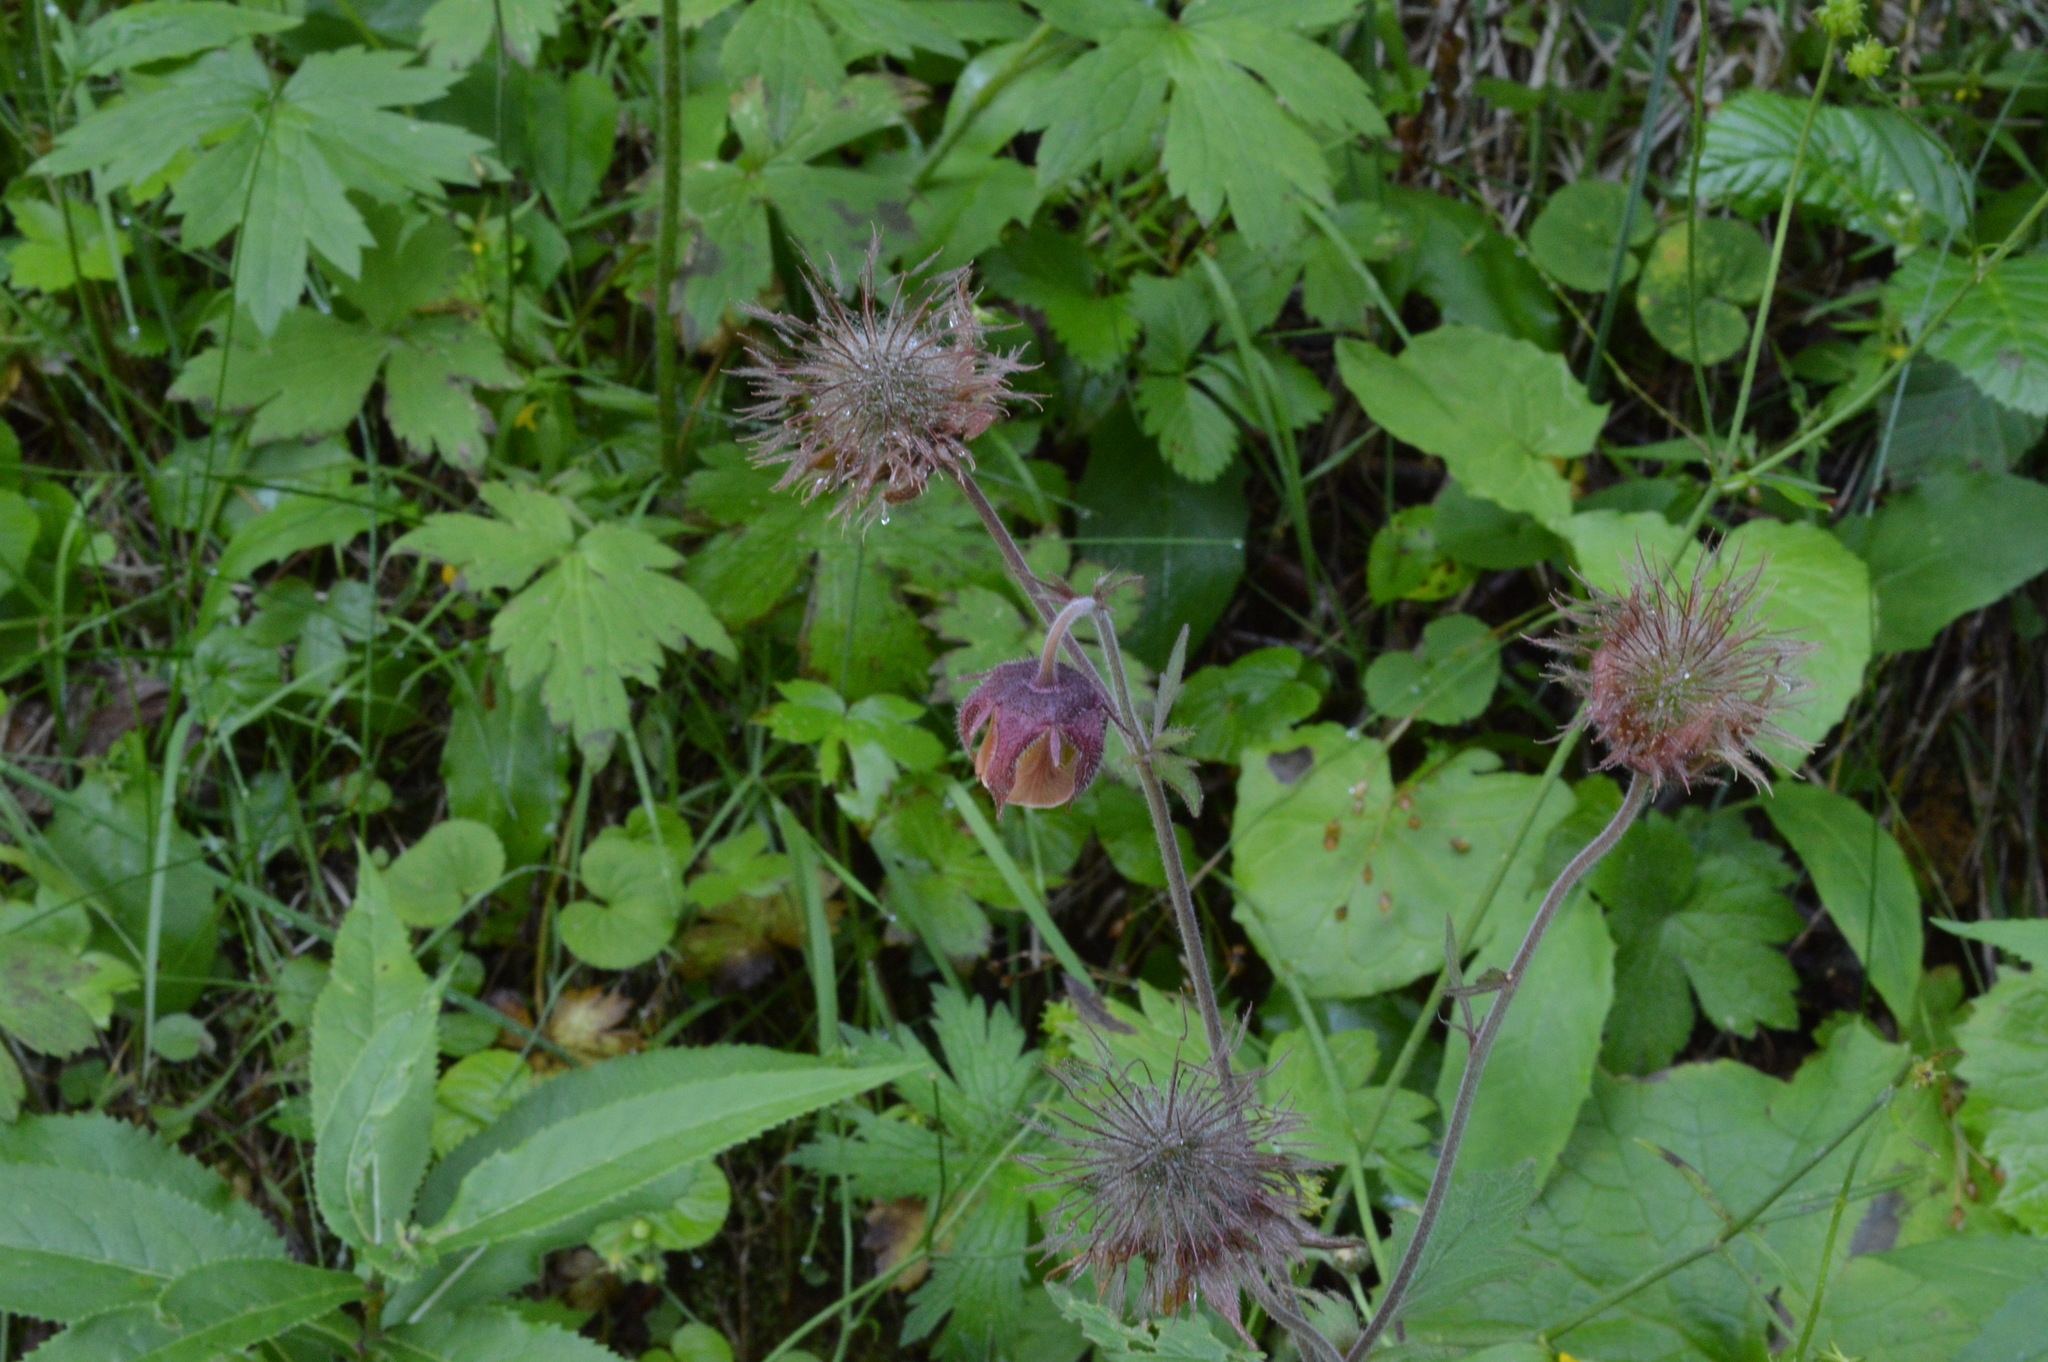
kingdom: Plantae
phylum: Tracheophyta
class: Magnoliopsida
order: Rosales
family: Rosaceae
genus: Geum
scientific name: Geum rivale
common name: Water avens
